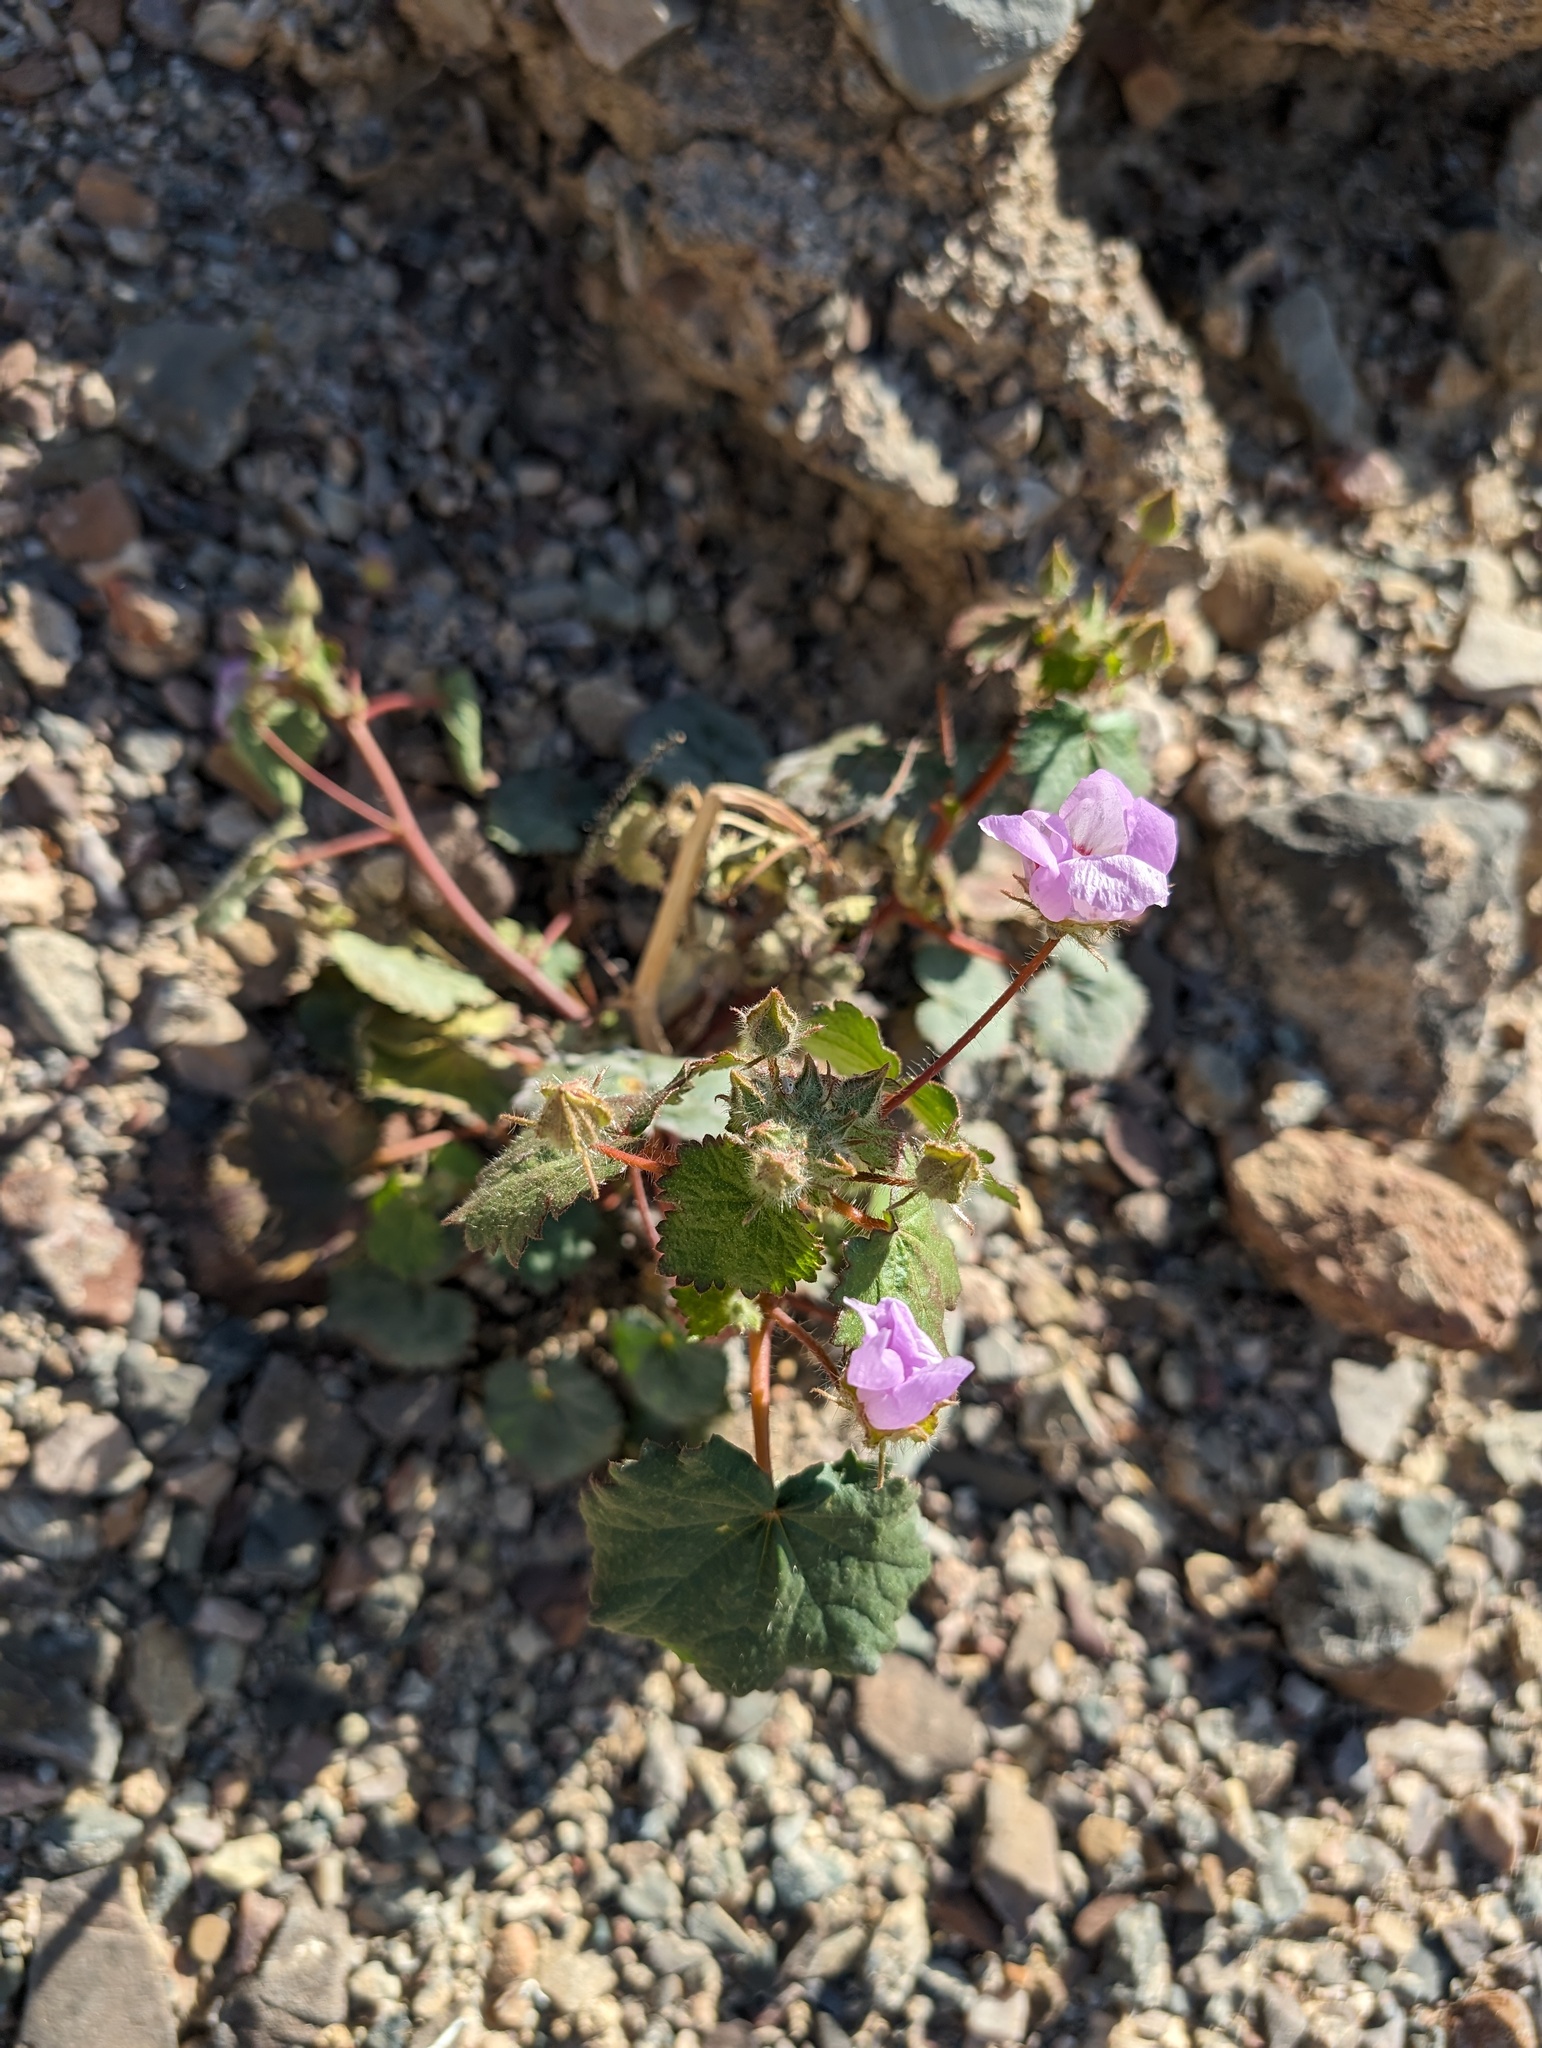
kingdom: Plantae
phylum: Tracheophyta
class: Magnoliopsida
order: Malvales
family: Malvaceae
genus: Eremalche
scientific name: Eremalche rotundifolia
